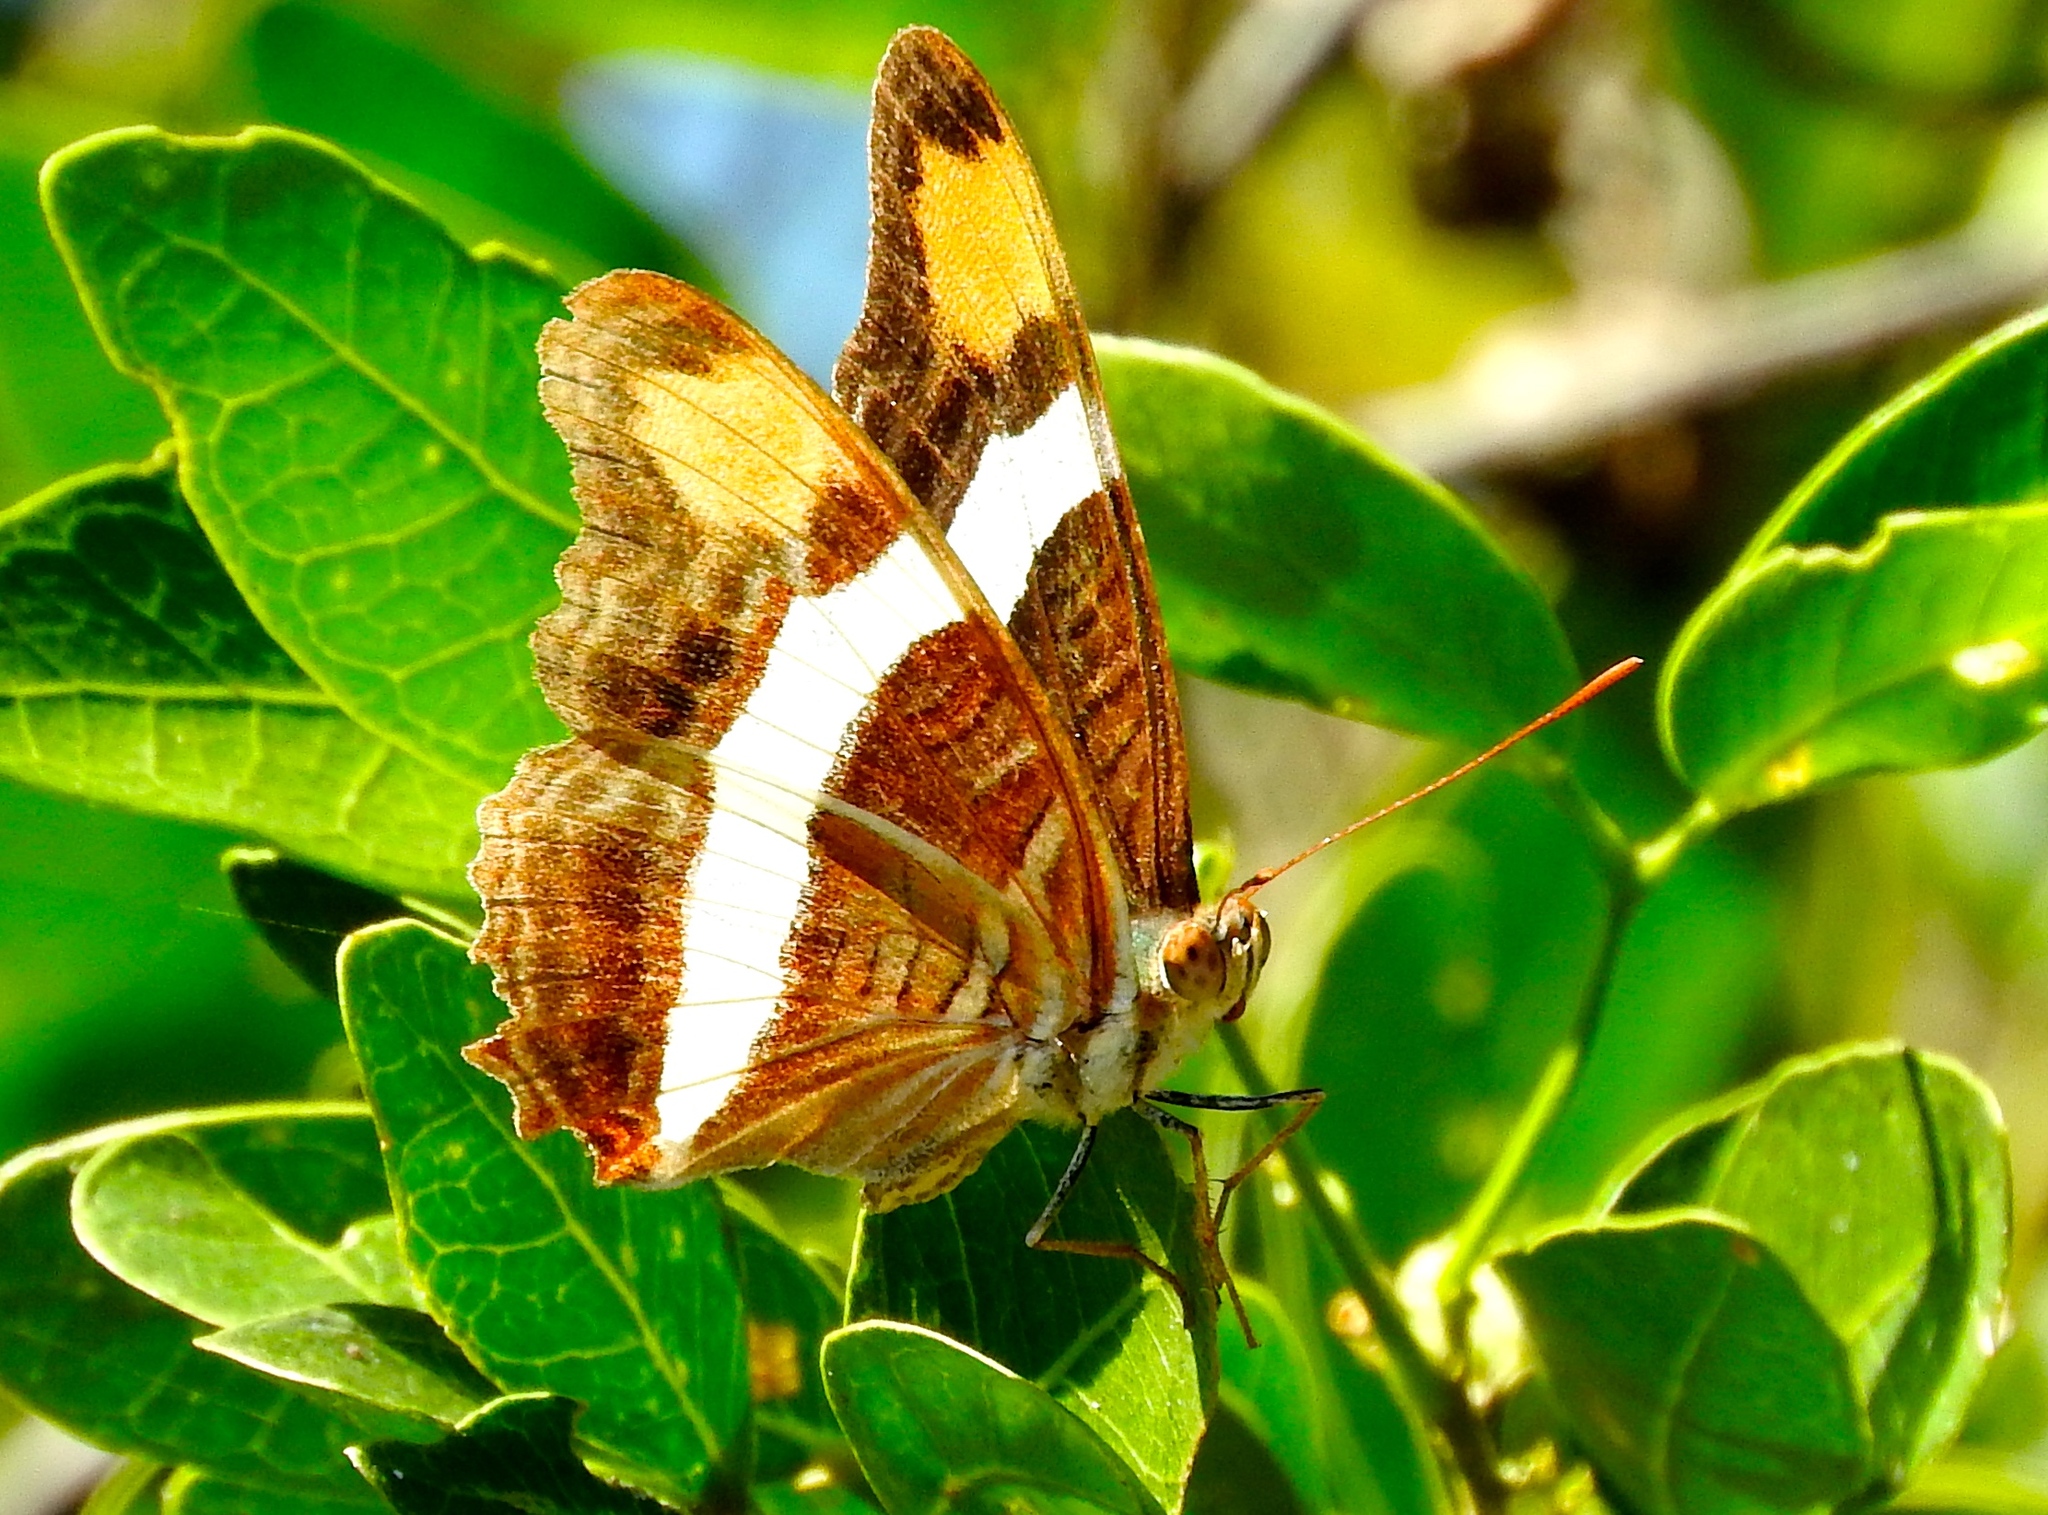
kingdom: Animalia
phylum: Arthropoda
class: Insecta
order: Lepidoptera
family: Nymphalidae
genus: Limenitis
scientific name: Limenitis fessonia
